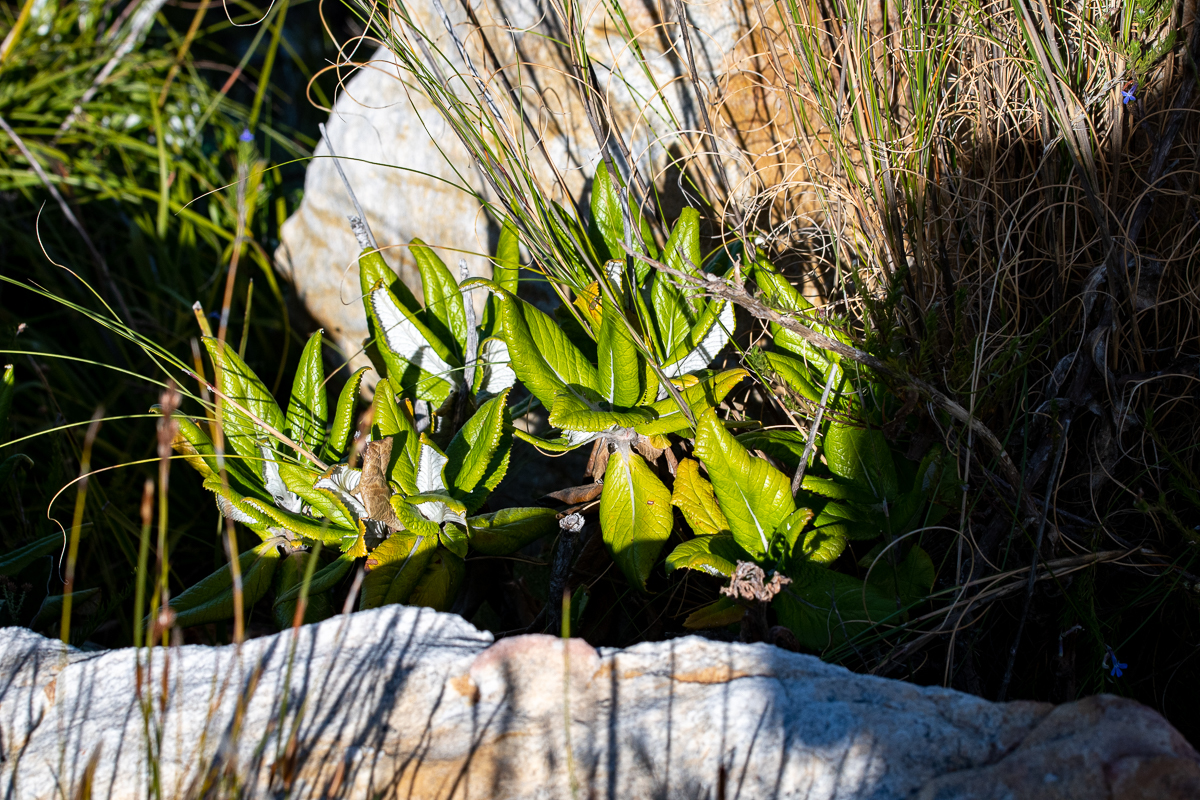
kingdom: Plantae
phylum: Tracheophyta
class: Magnoliopsida
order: Apiales
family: Apiaceae
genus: Hermas
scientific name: Hermas villosa
